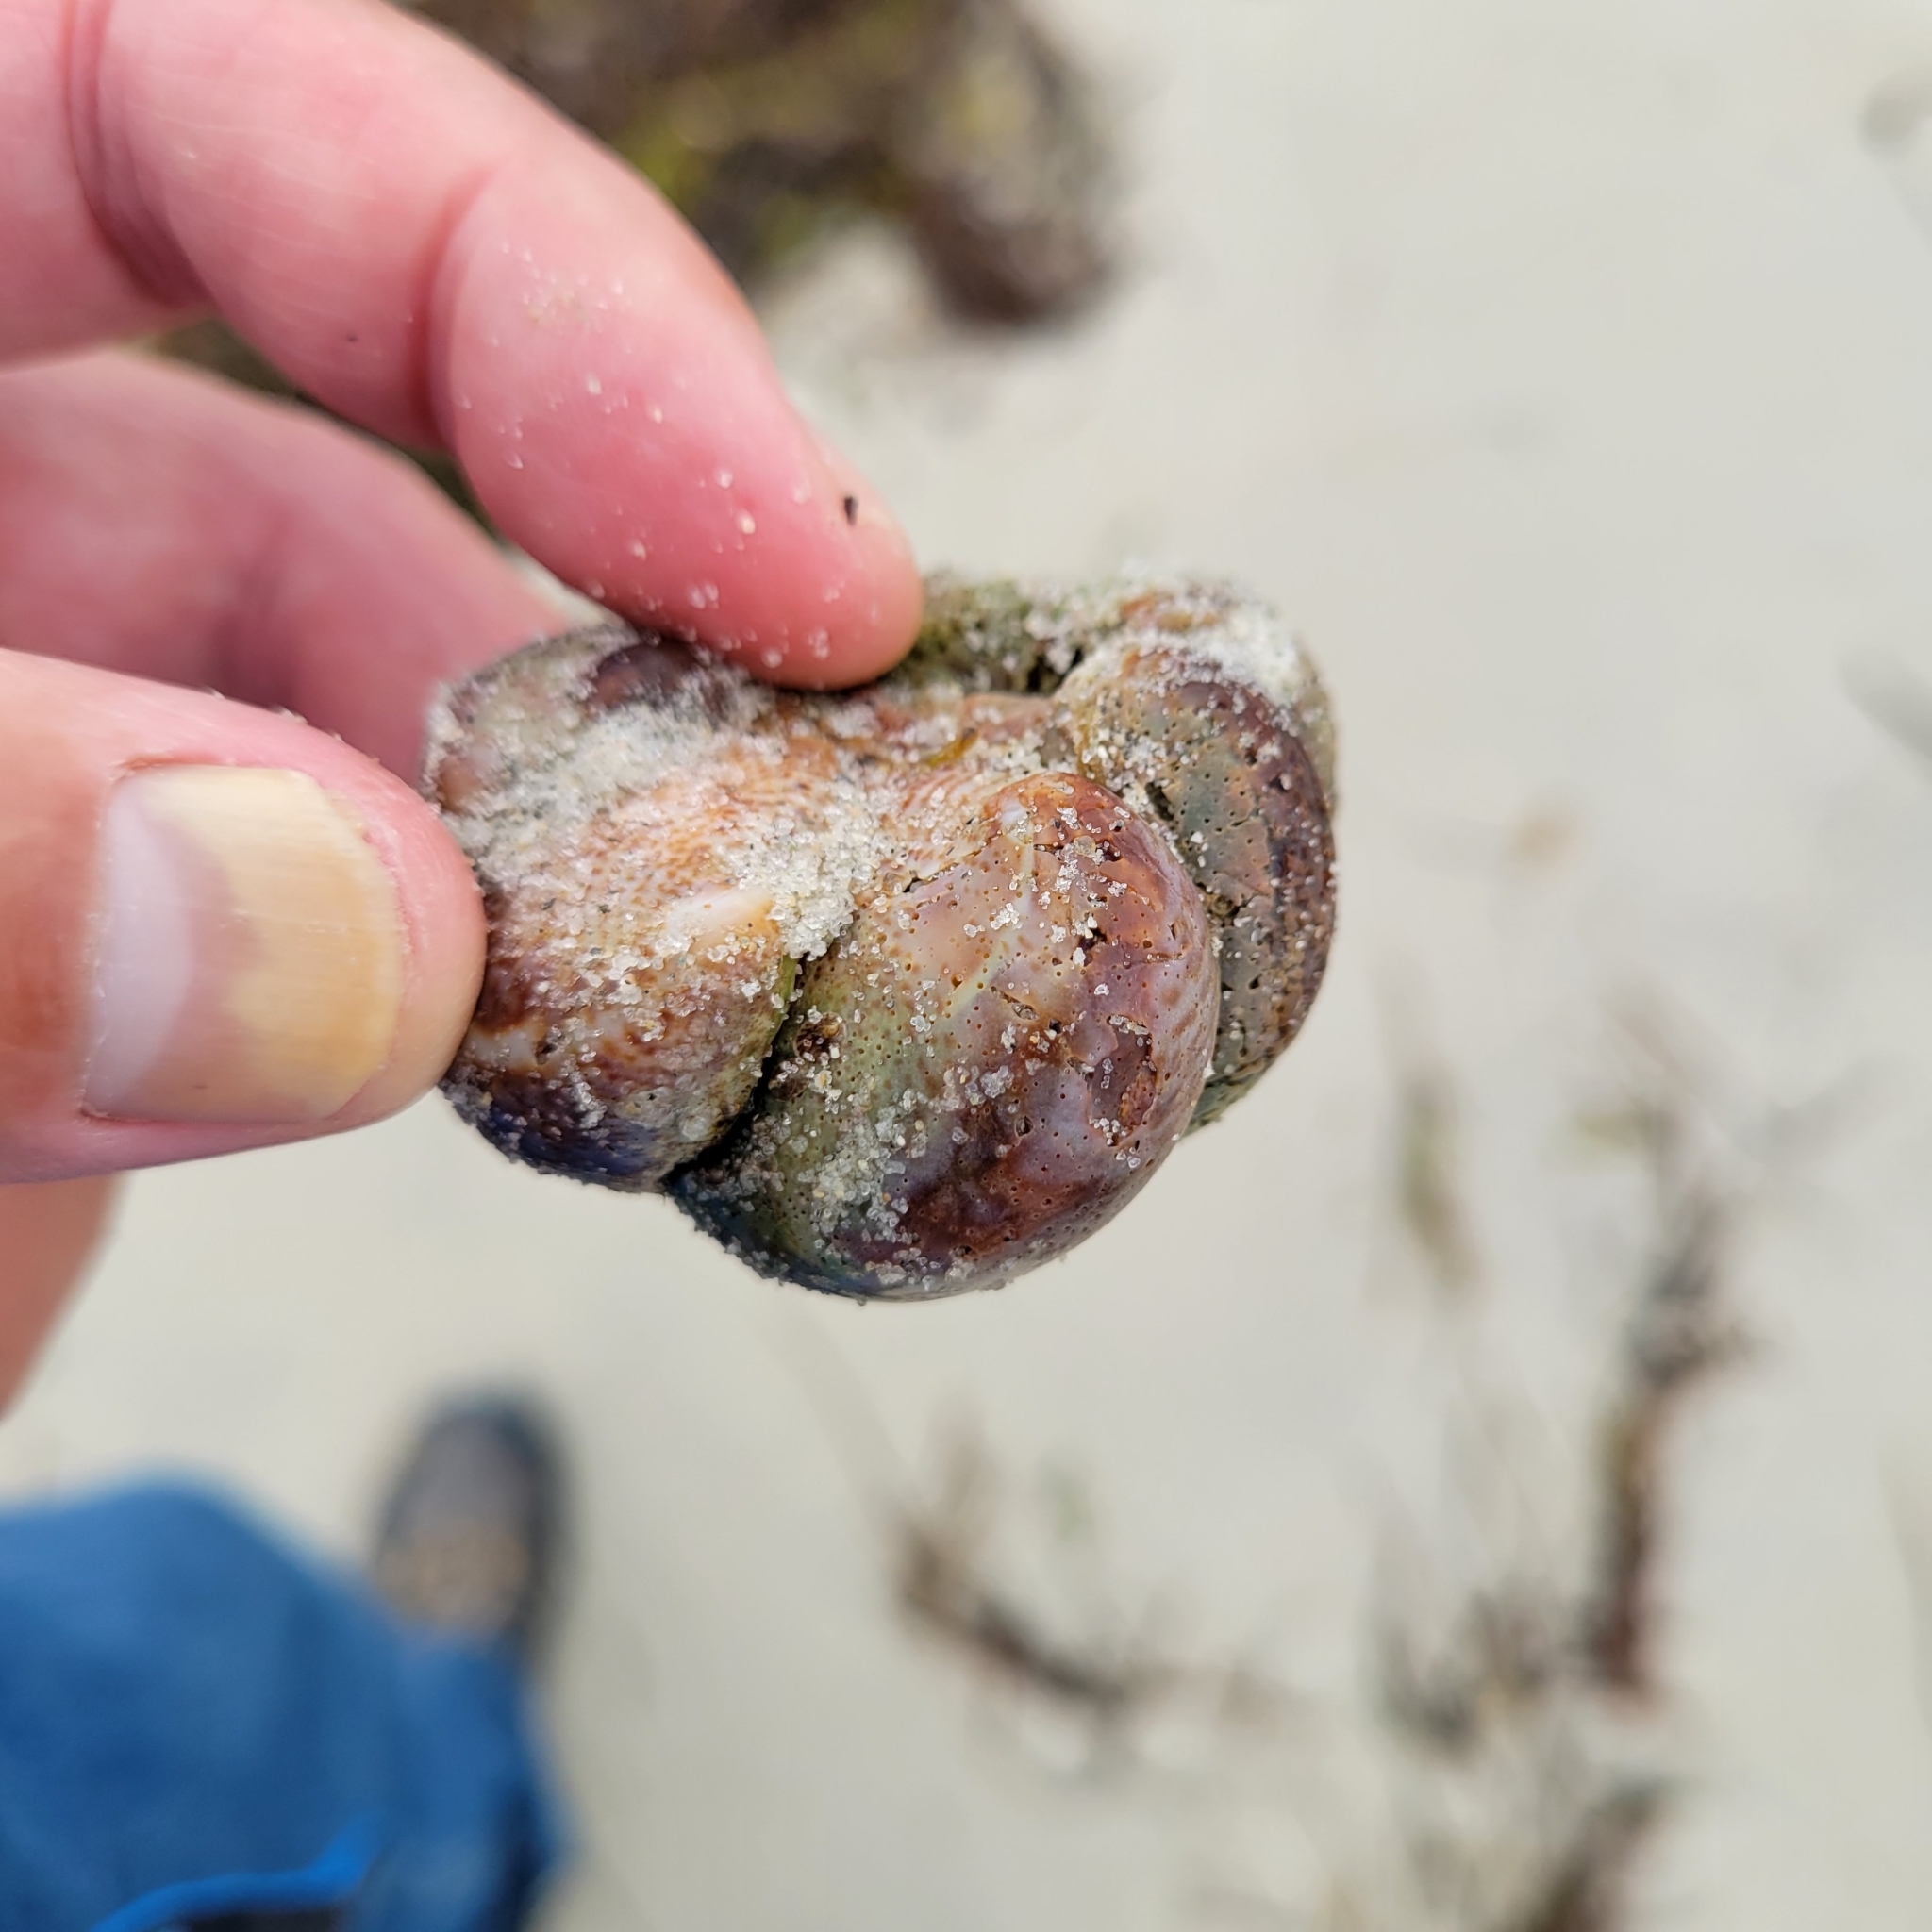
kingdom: Animalia
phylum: Mollusca
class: Gastropoda
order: Littorinimorpha
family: Calyptraeidae
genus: Crepidula
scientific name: Crepidula fornicata
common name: Slipper limpet
